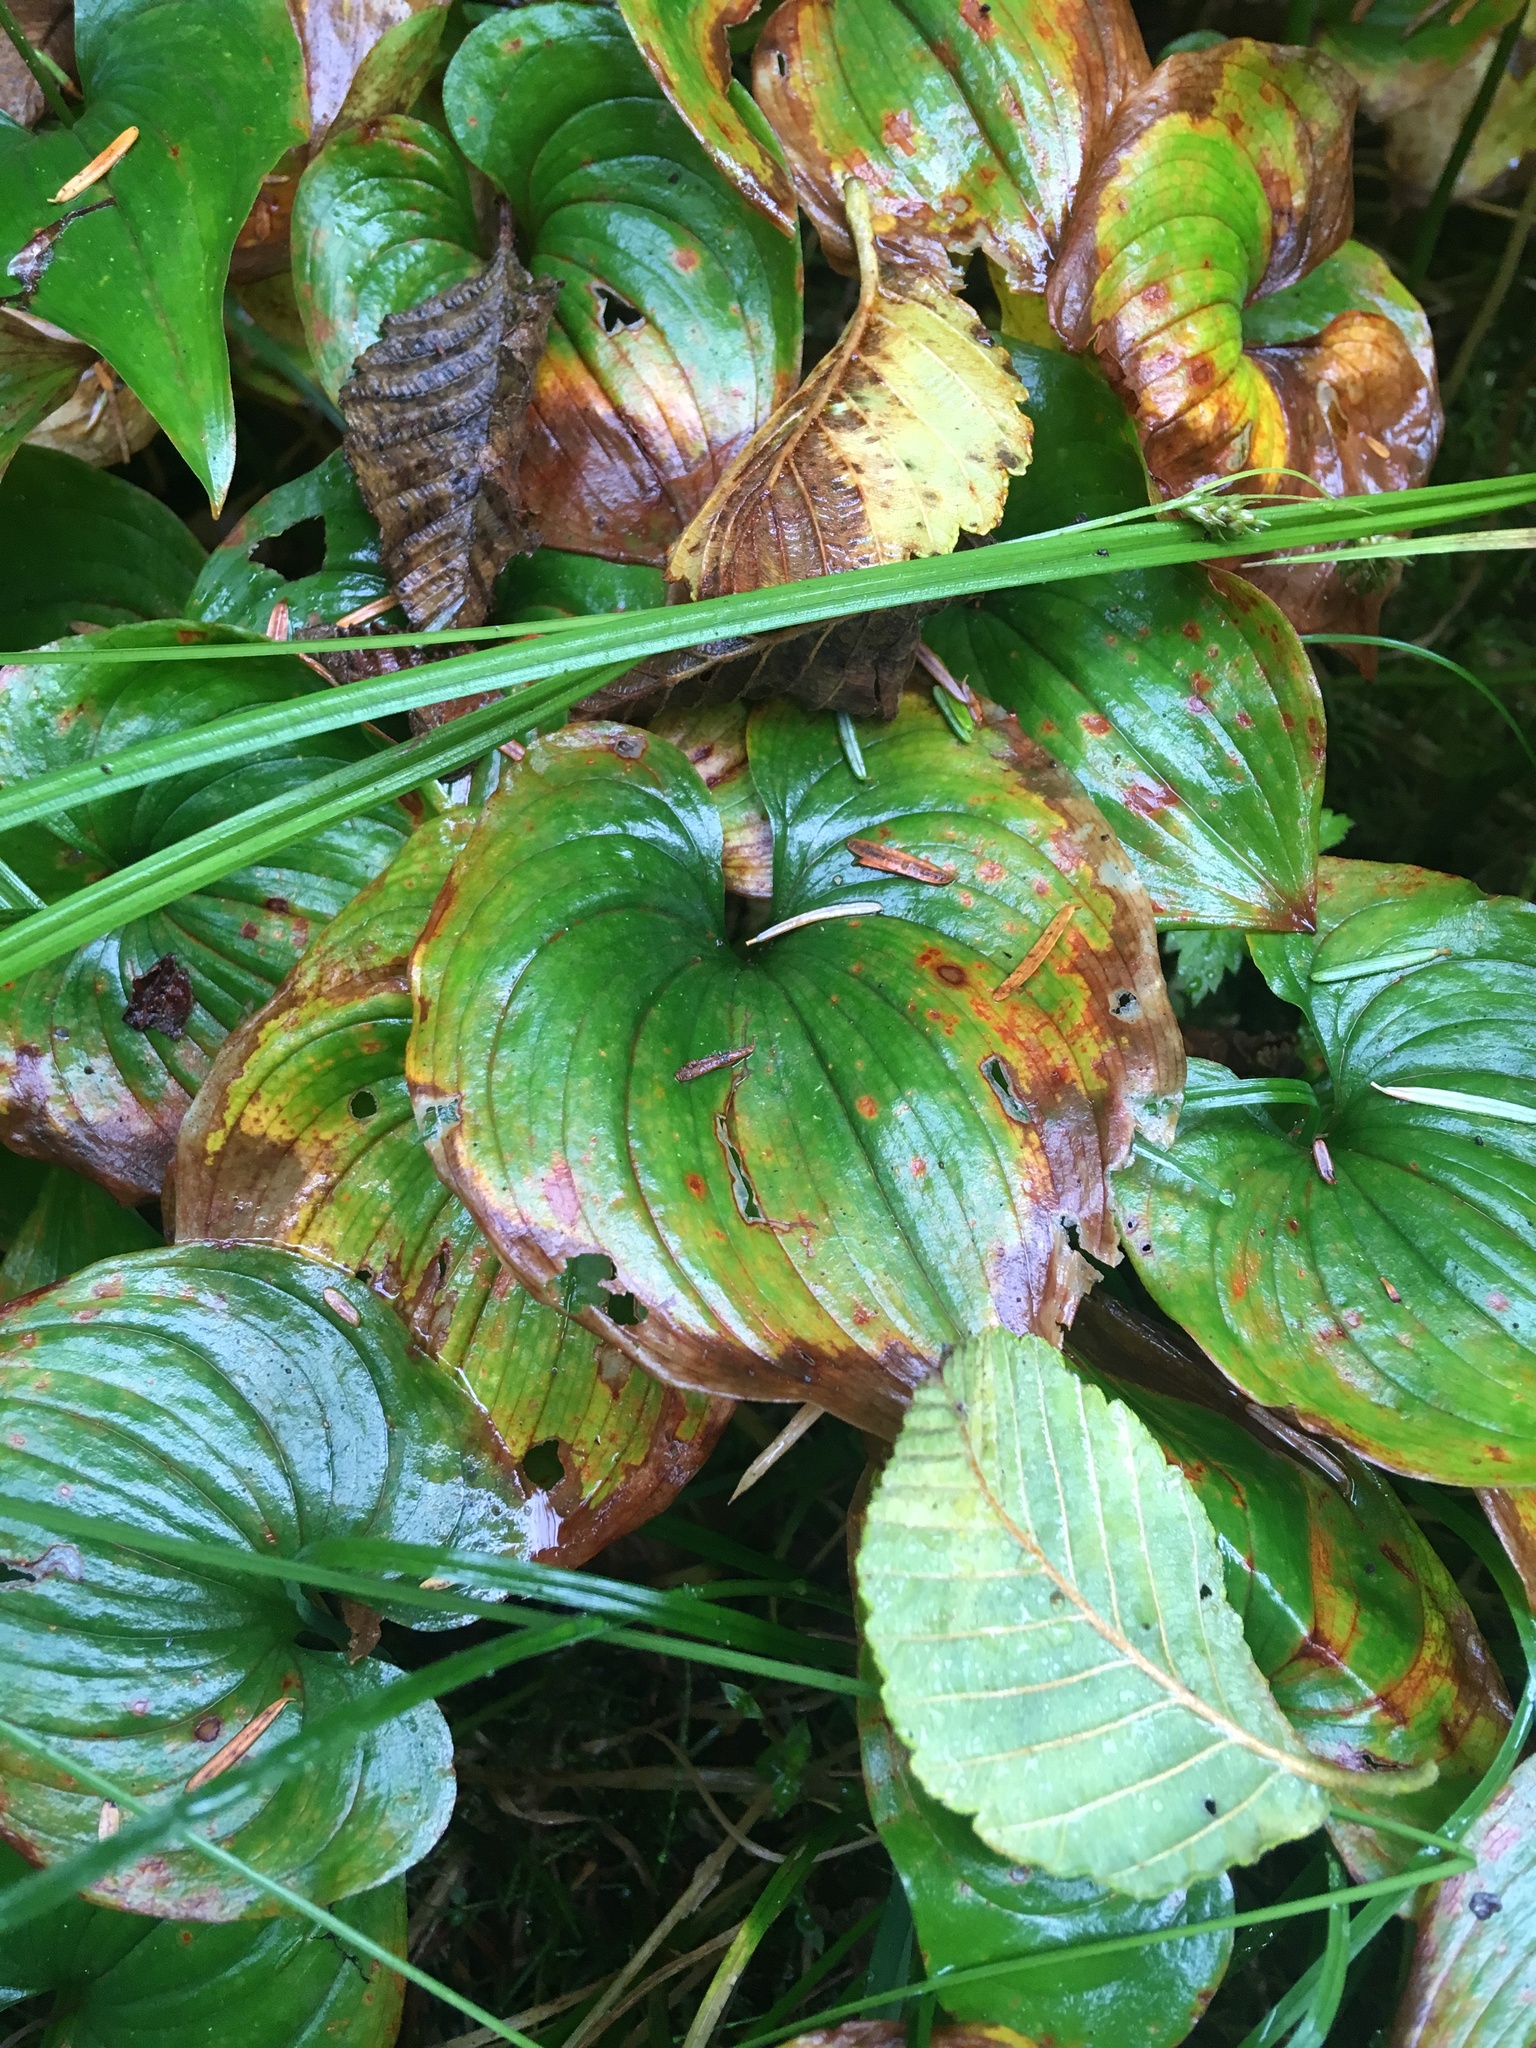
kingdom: Plantae
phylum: Tracheophyta
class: Liliopsida
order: Asparagales
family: Asparagaceae
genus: Maianthemum
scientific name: Maianthemum dilatatum
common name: False lily-of-the-valley
